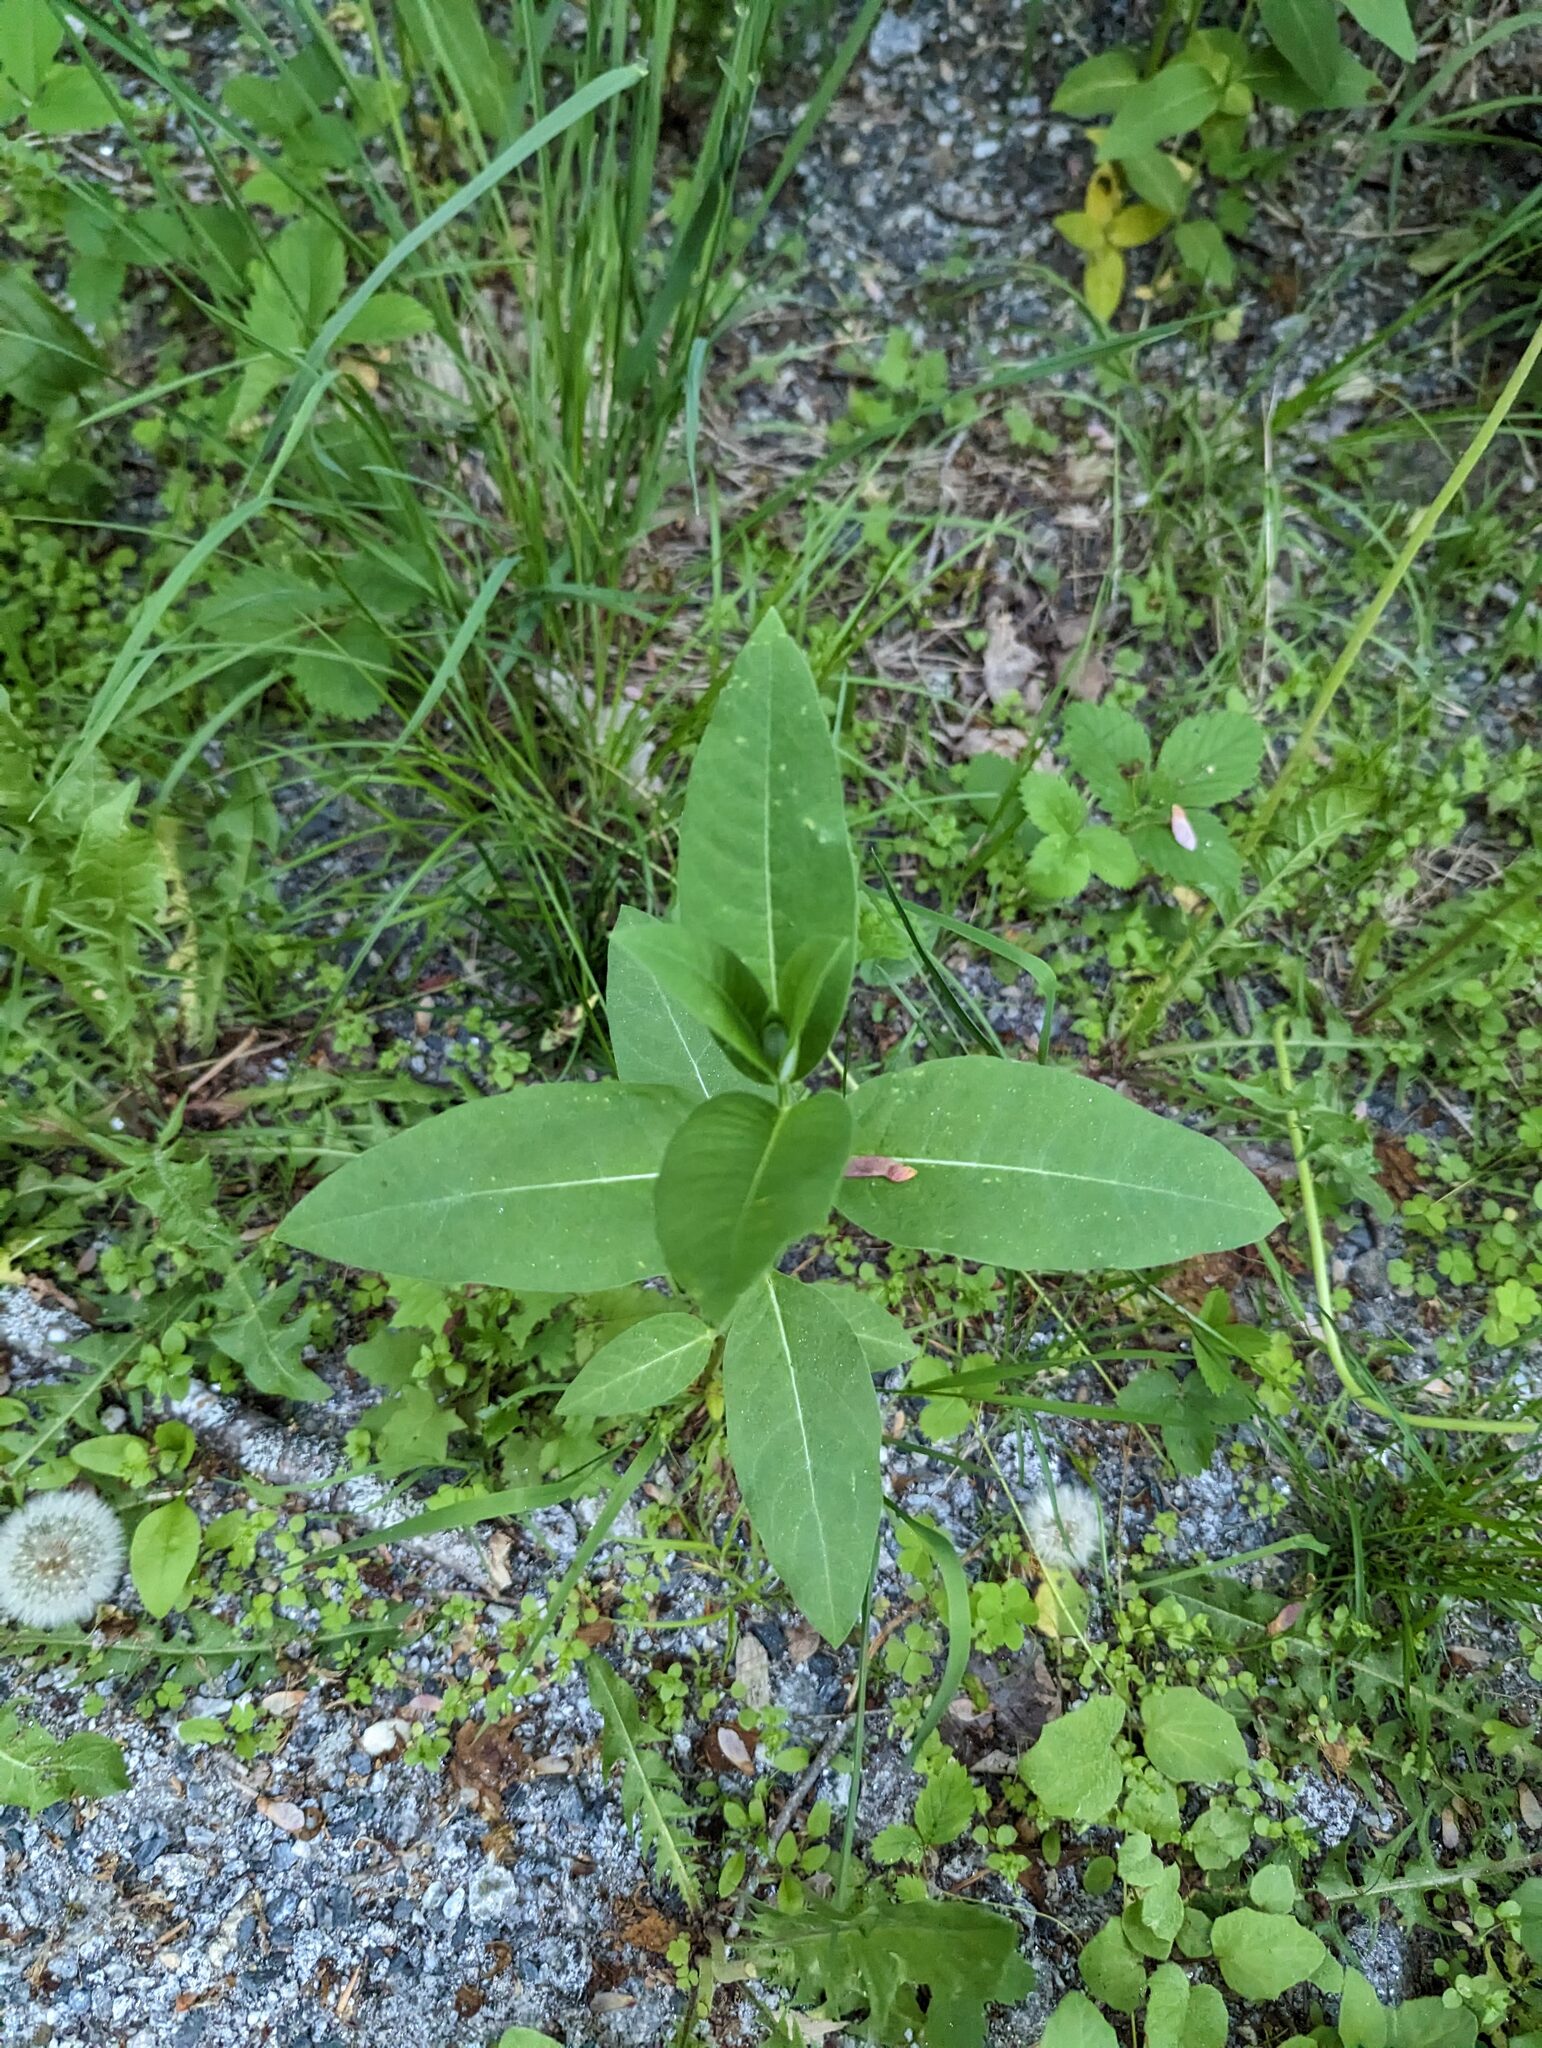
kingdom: Plantae
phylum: Tracheophyta
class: Magnoliopsida
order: Gentianales
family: Apocynaceae
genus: Asclepias
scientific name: Asclepias syriaca
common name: Common milkweed
